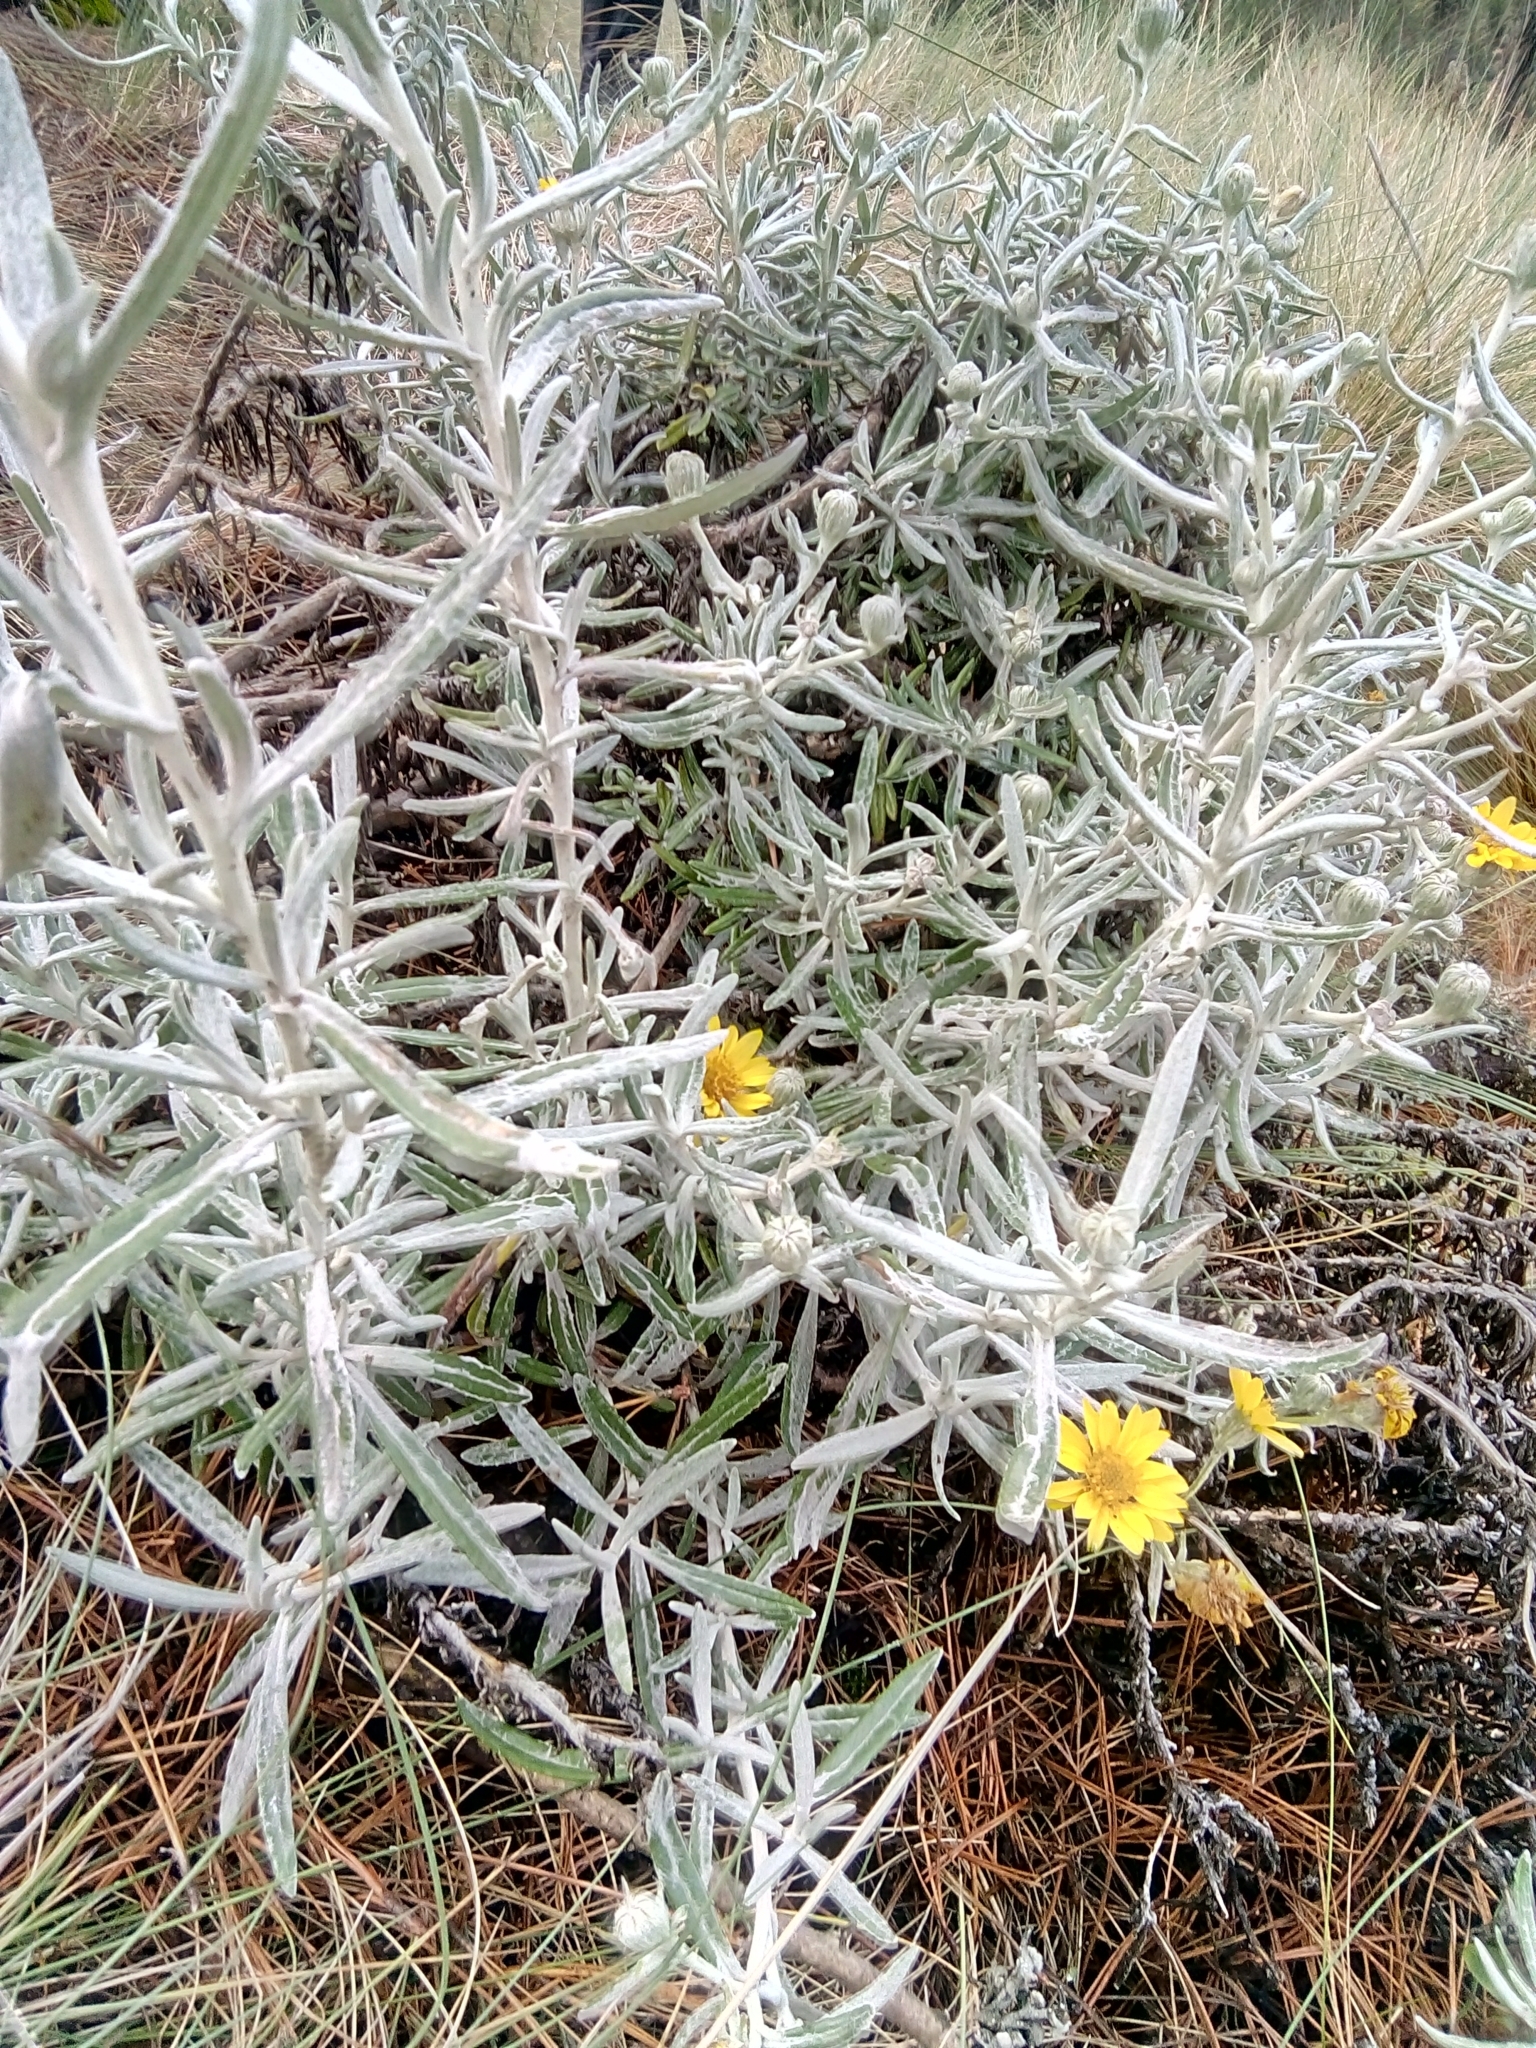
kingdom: Plantae
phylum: Tracheophyta
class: Magnoliopsida
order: Asterales
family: Asteraceae
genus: Senecio
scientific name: Senecio mairetianus
